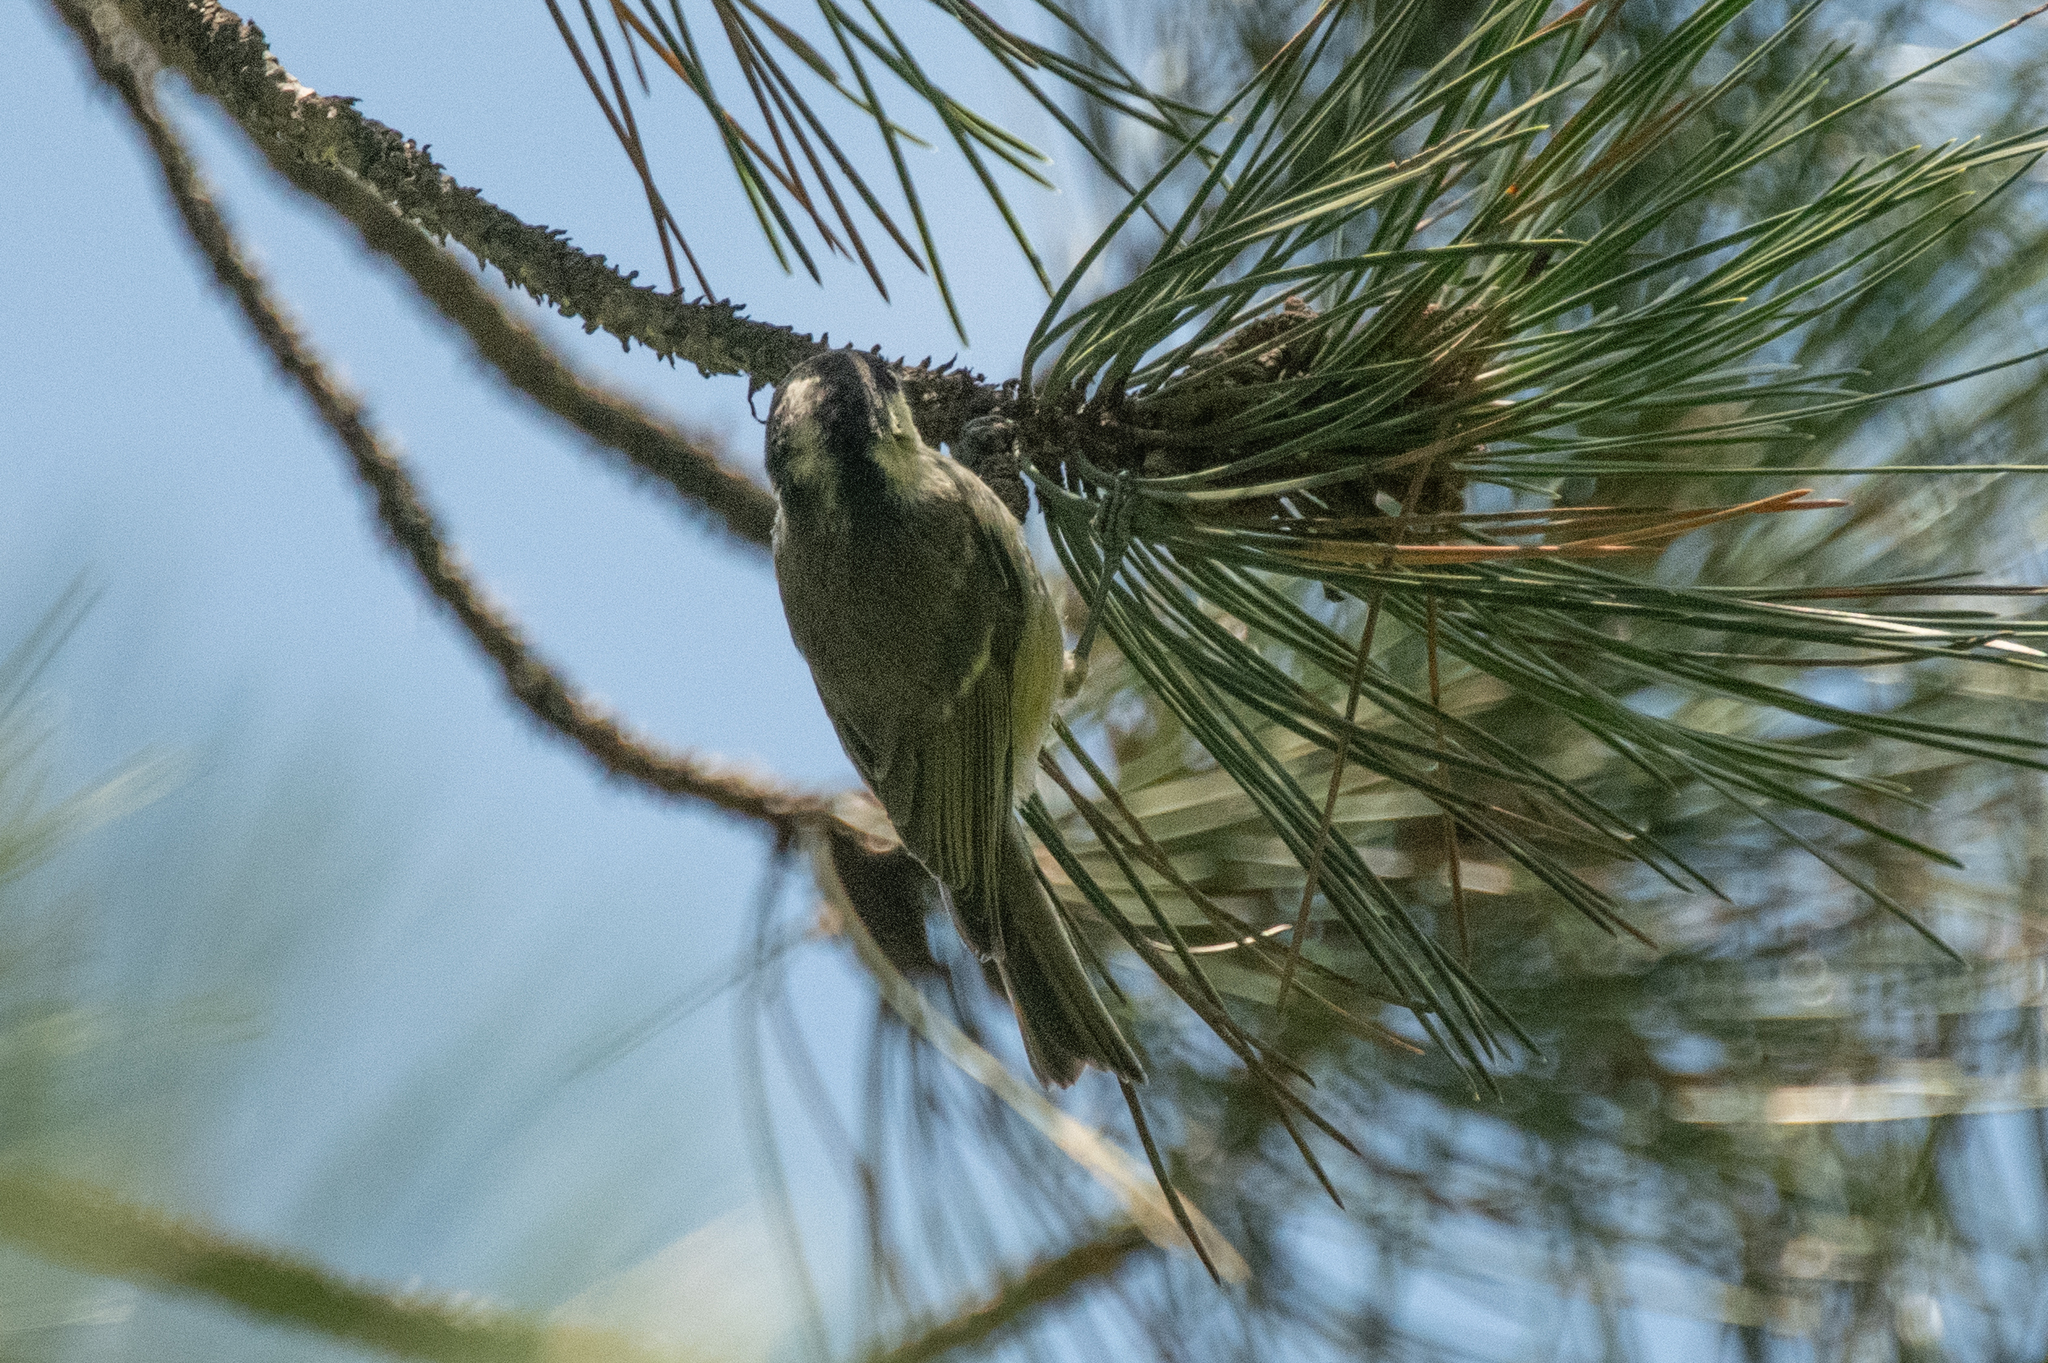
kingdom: Animalia
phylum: Chordata
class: Aves
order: Passeriformes
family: Paridae
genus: Periparus
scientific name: Periparus ater
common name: Coal tit
